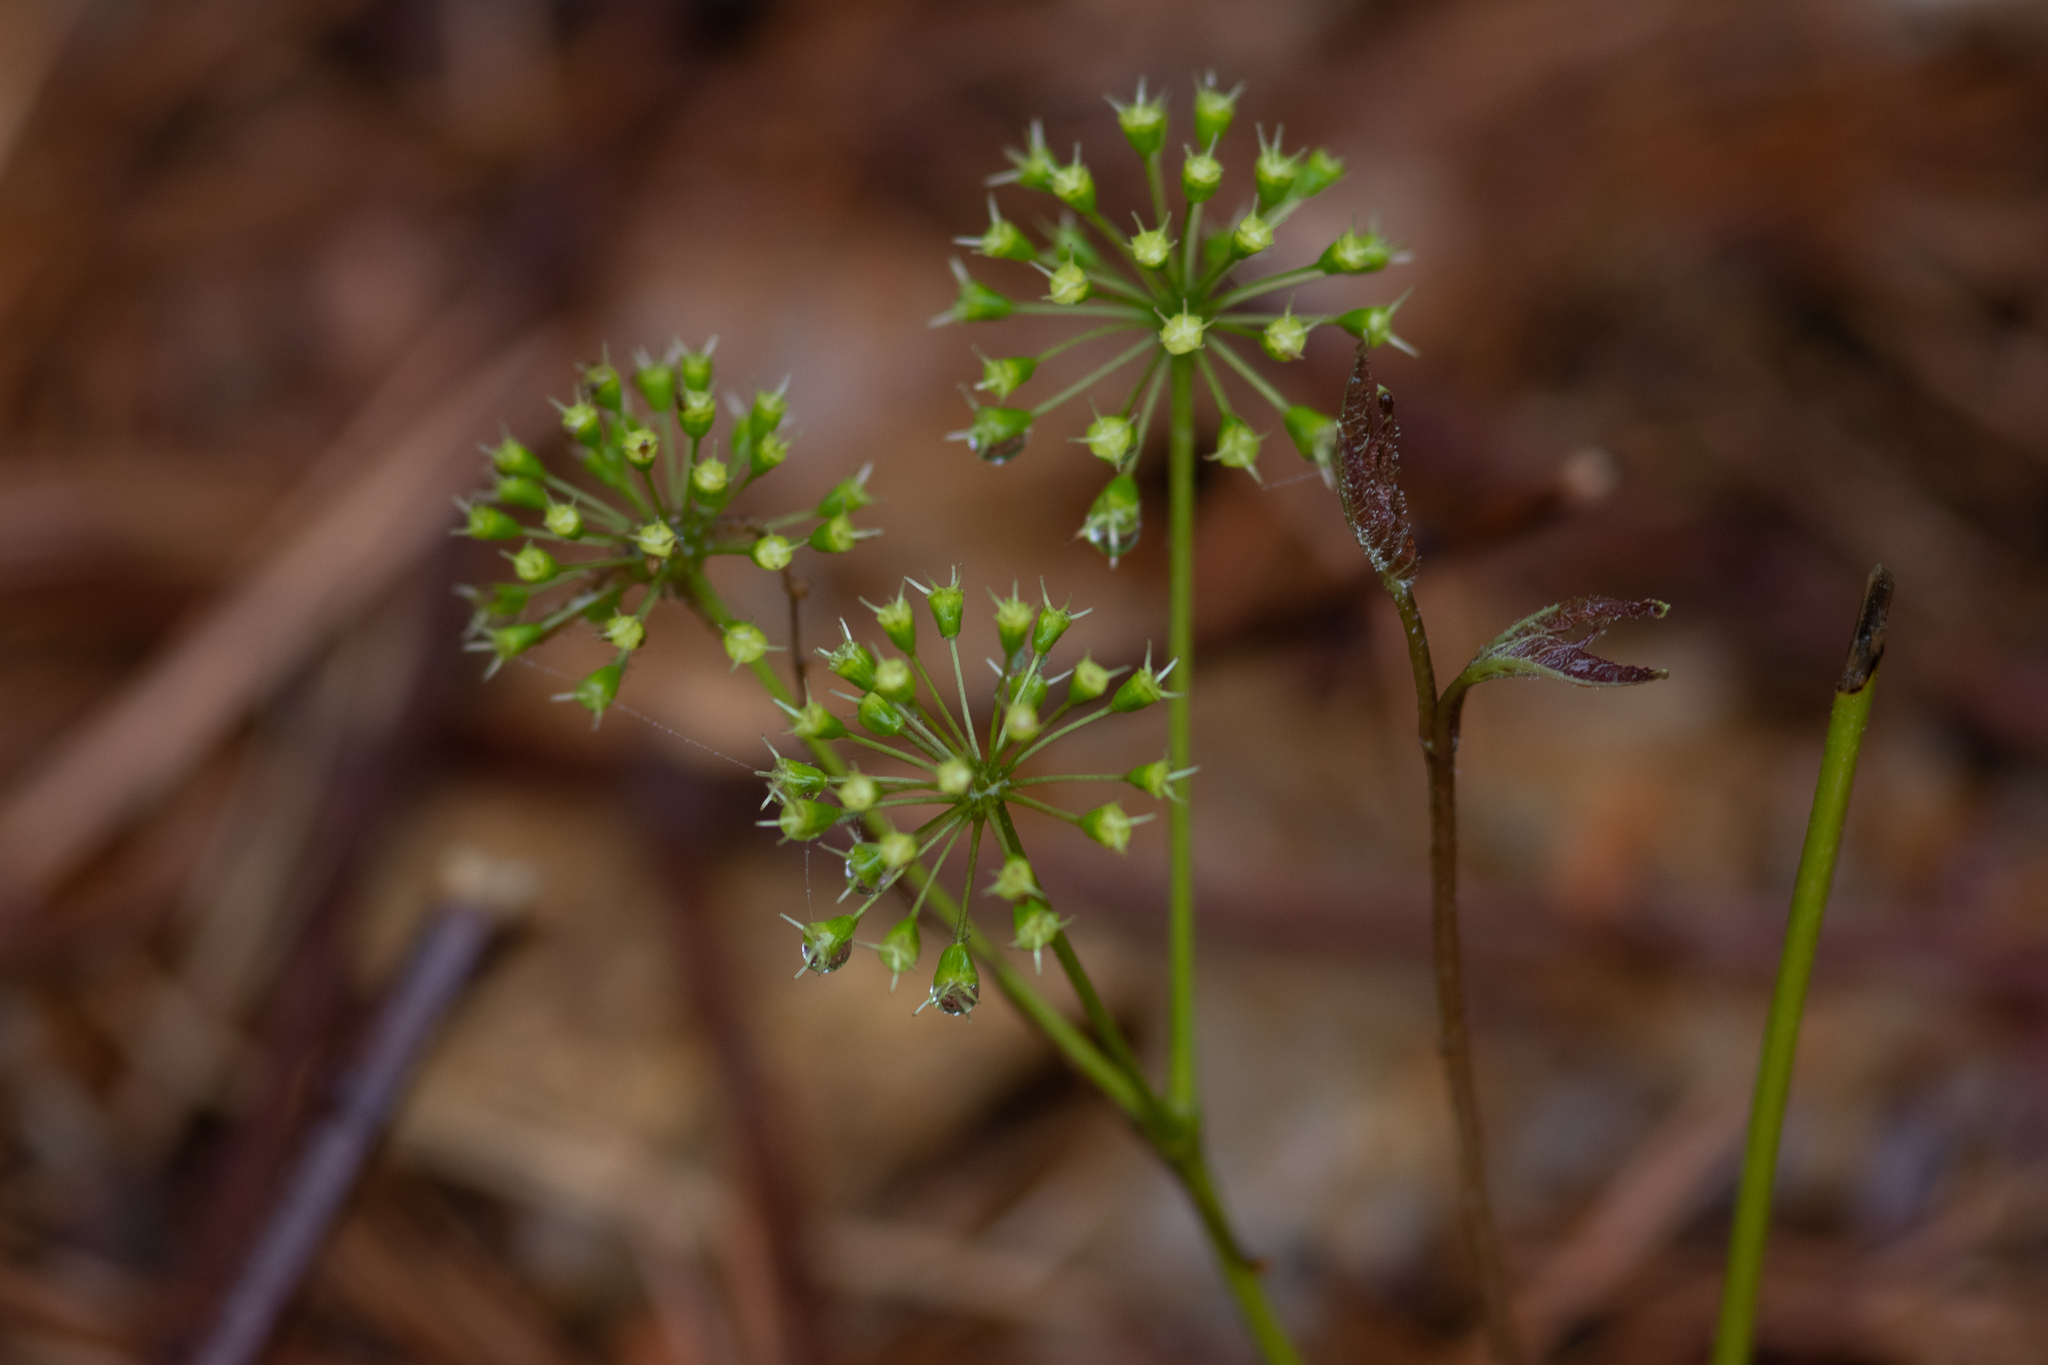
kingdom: Plantae
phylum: Tracheophyta
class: Magnoliopsida
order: Apiales
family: Araliaceae
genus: Aralia
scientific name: Aralia nudicaulis
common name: Wild sarsaparilla
